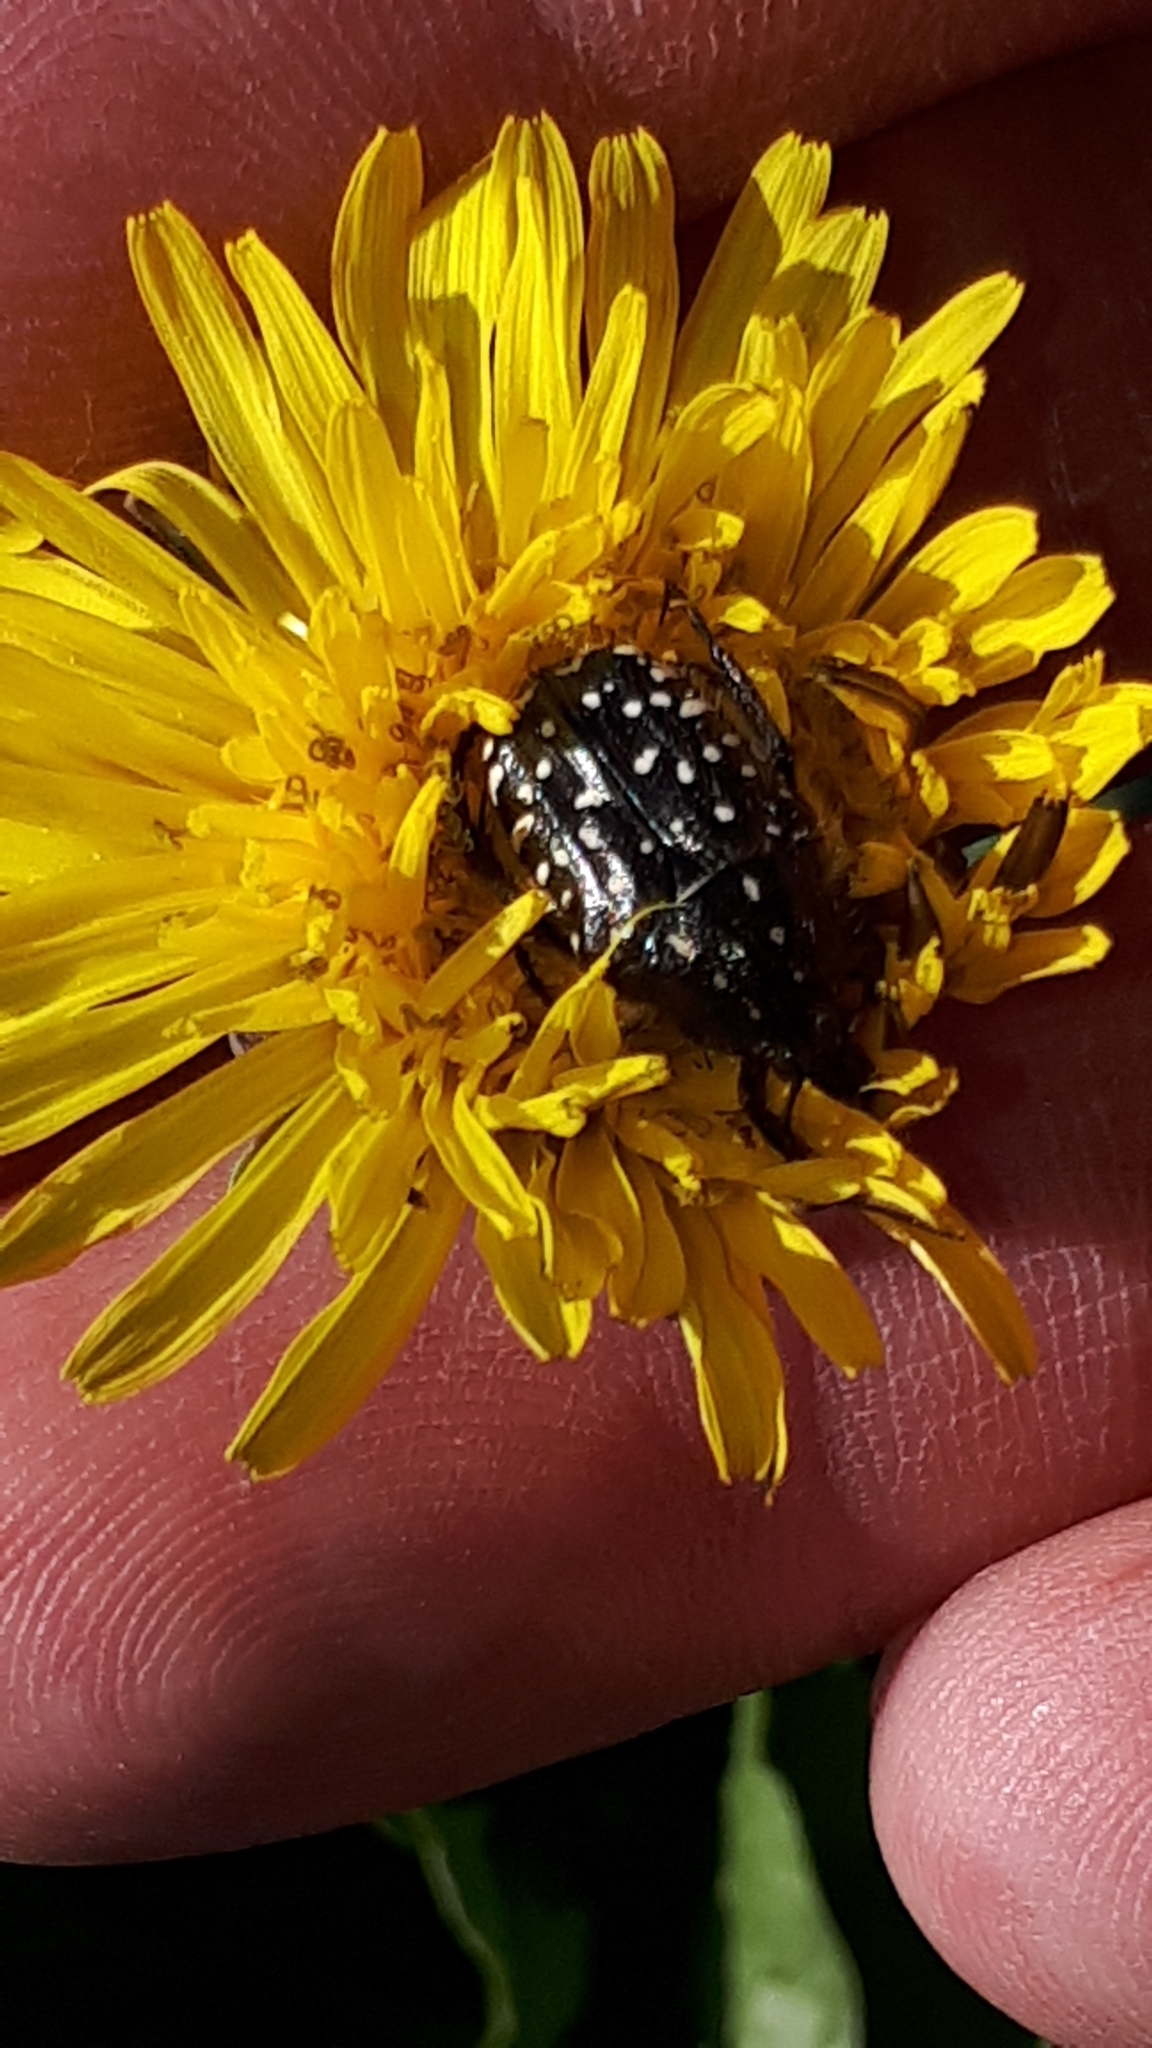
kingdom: Animalia
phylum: Arthropoda
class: Insecta
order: Coleoptera
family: Scarabaeidae
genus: Oxythyrea
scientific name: Oxythyrea funesta
